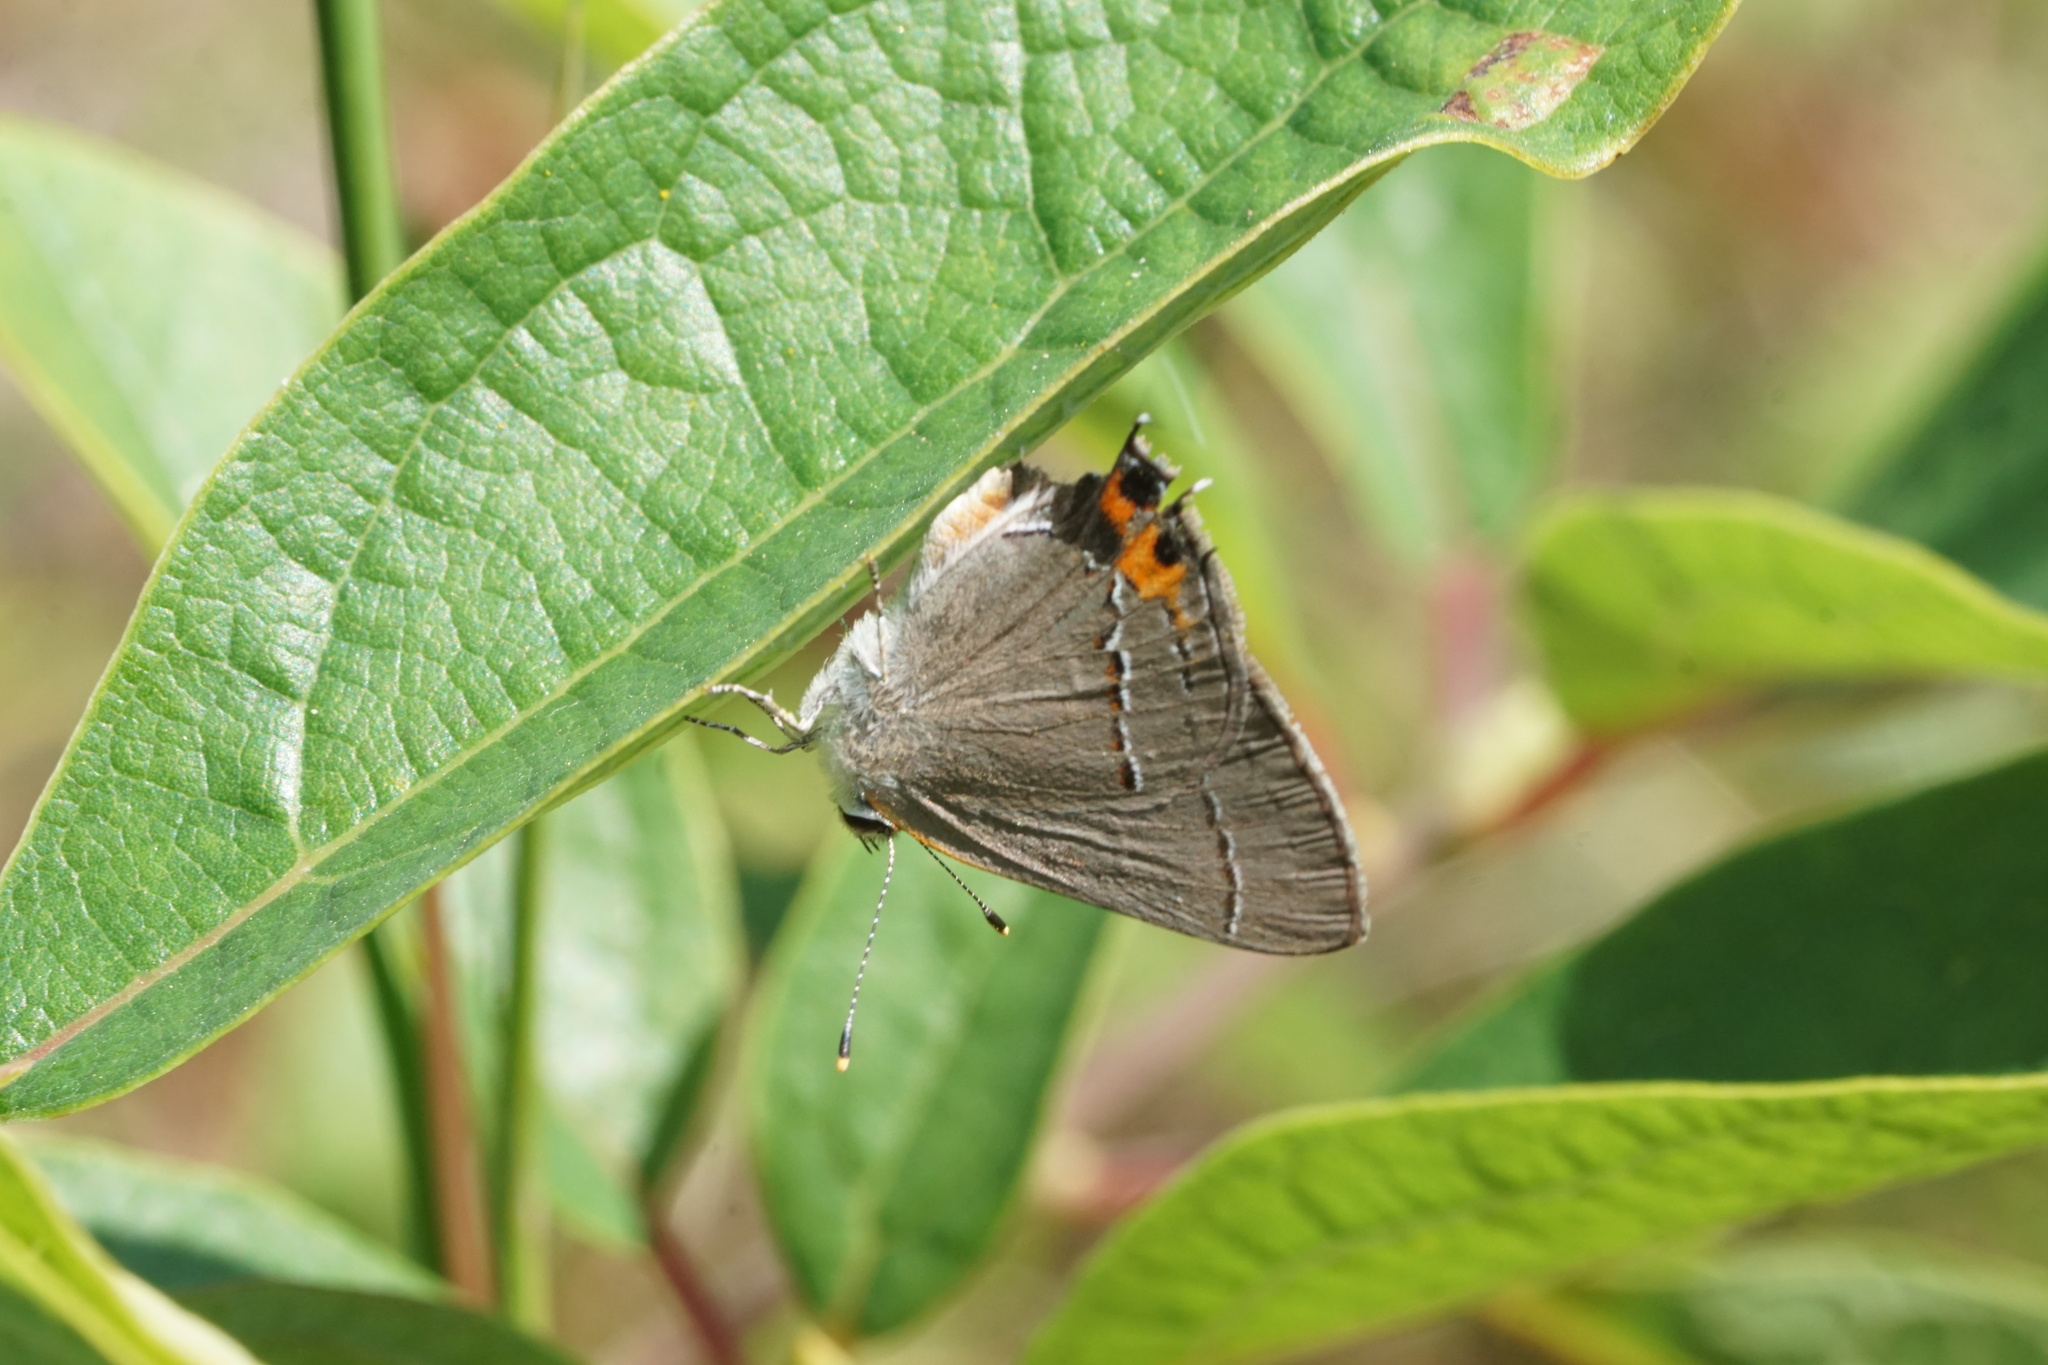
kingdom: Animalia
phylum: Arthropoda
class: Insecta
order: Lepidoptera
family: Lycaenidae
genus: Strymon
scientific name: Strymon melinus
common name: Gray hairstreak
